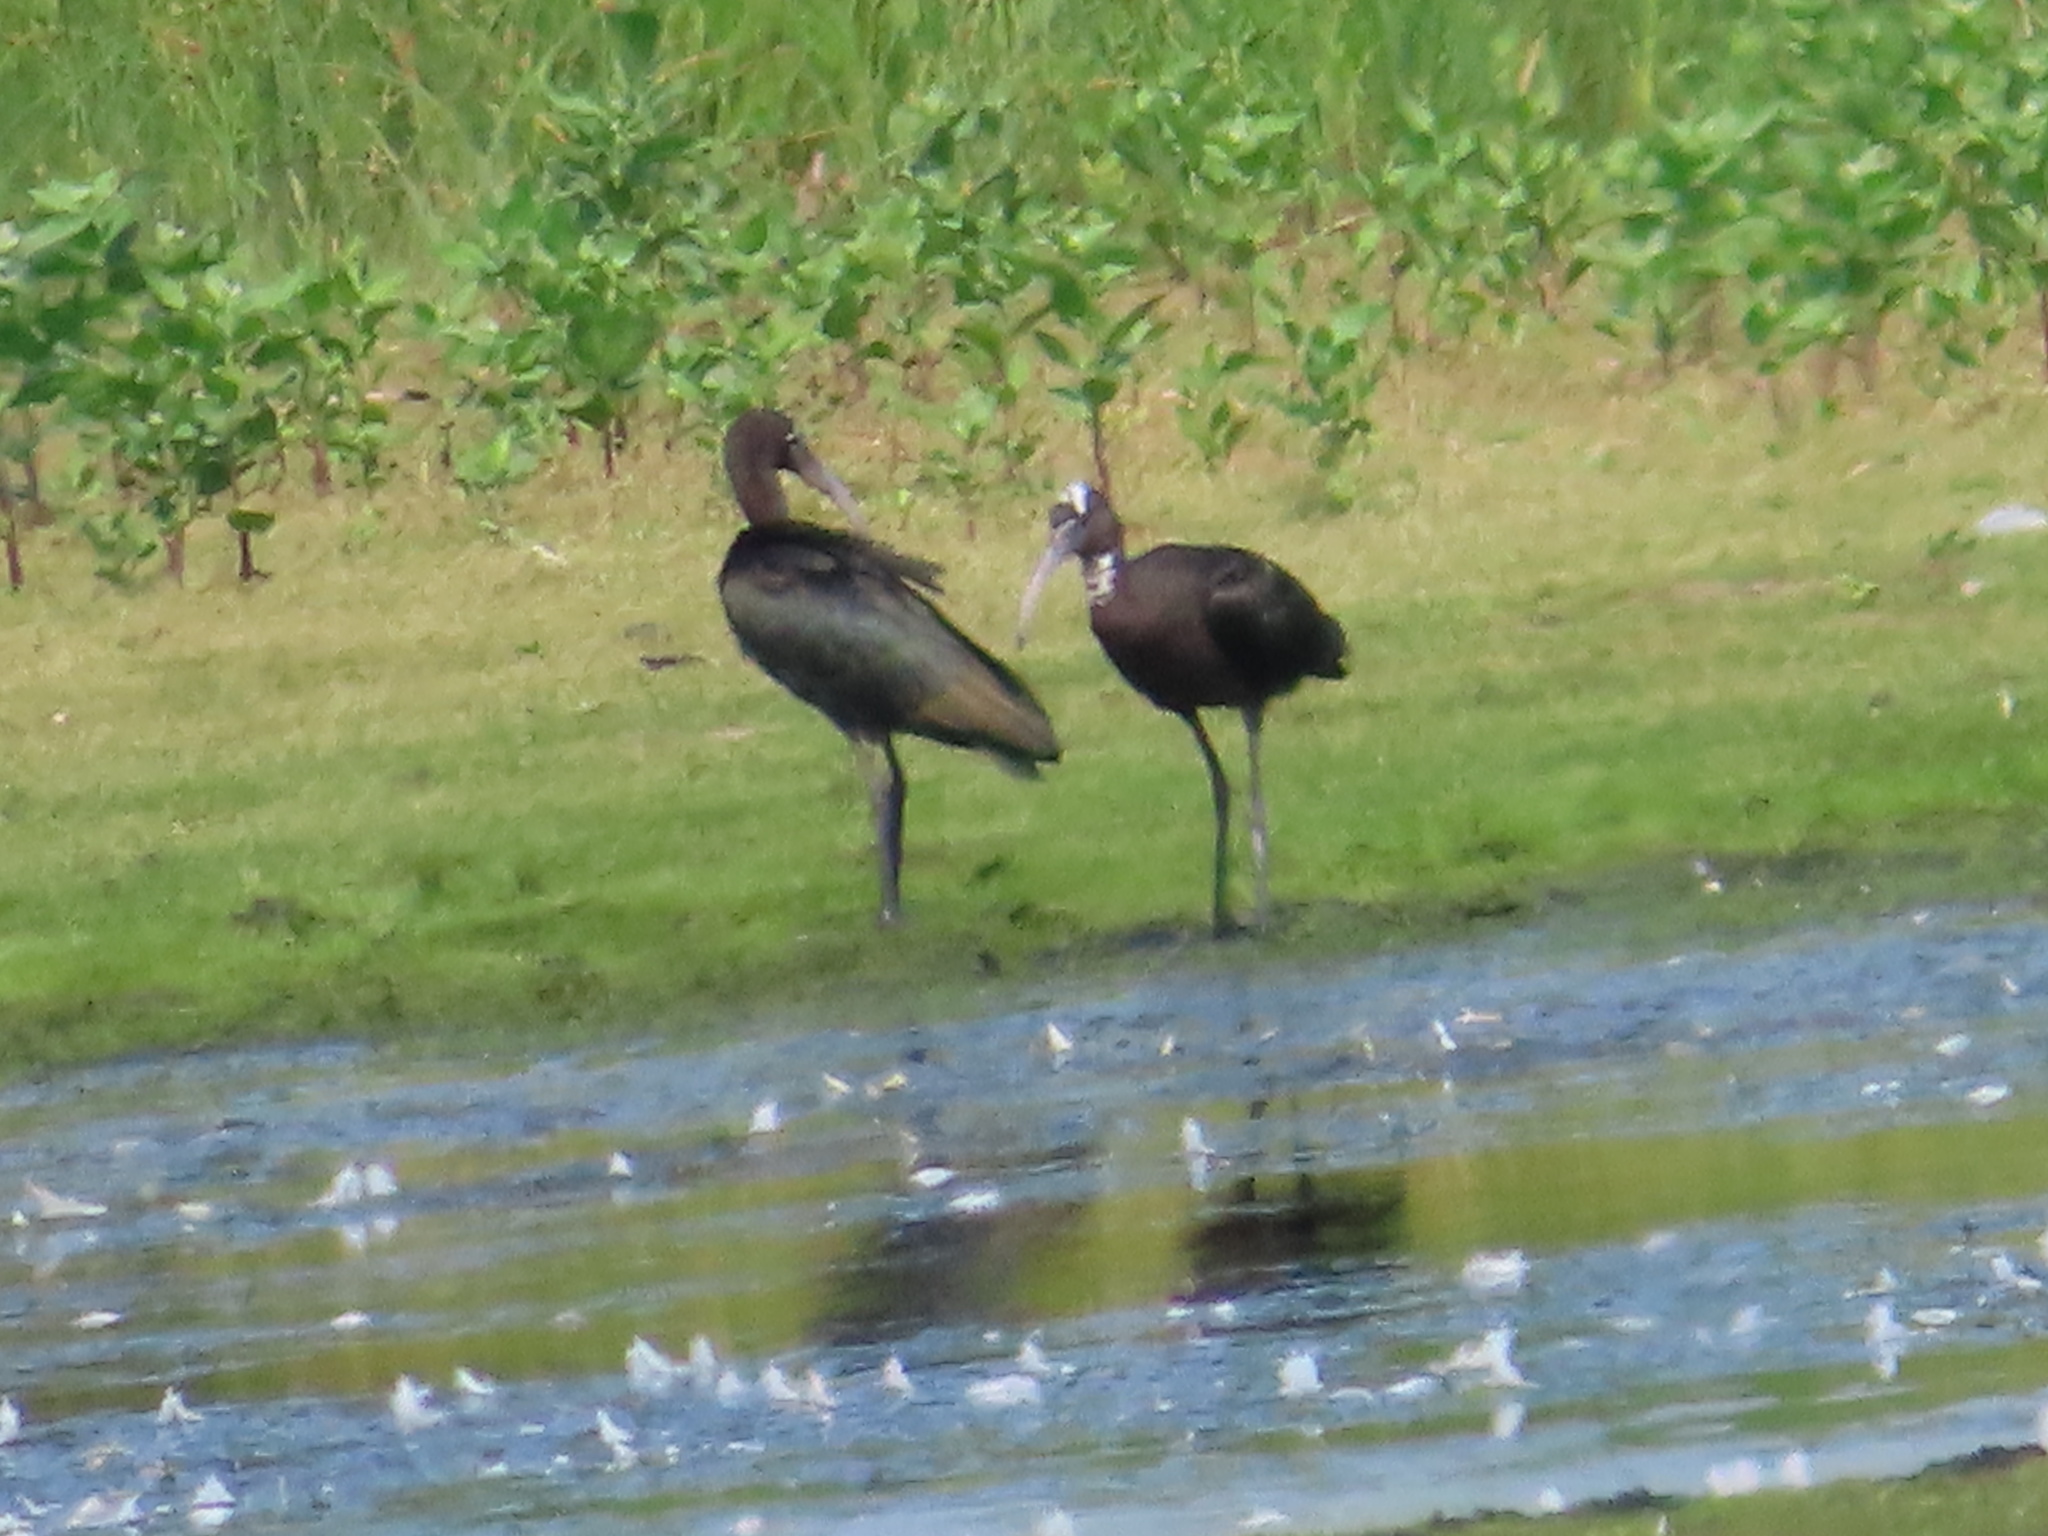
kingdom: Animalia
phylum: Chordata
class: Aves
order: Pelecaniformes
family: Threskiornithidae
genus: Plegadis
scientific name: Plegadis falcinellus
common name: Glossy ibis
